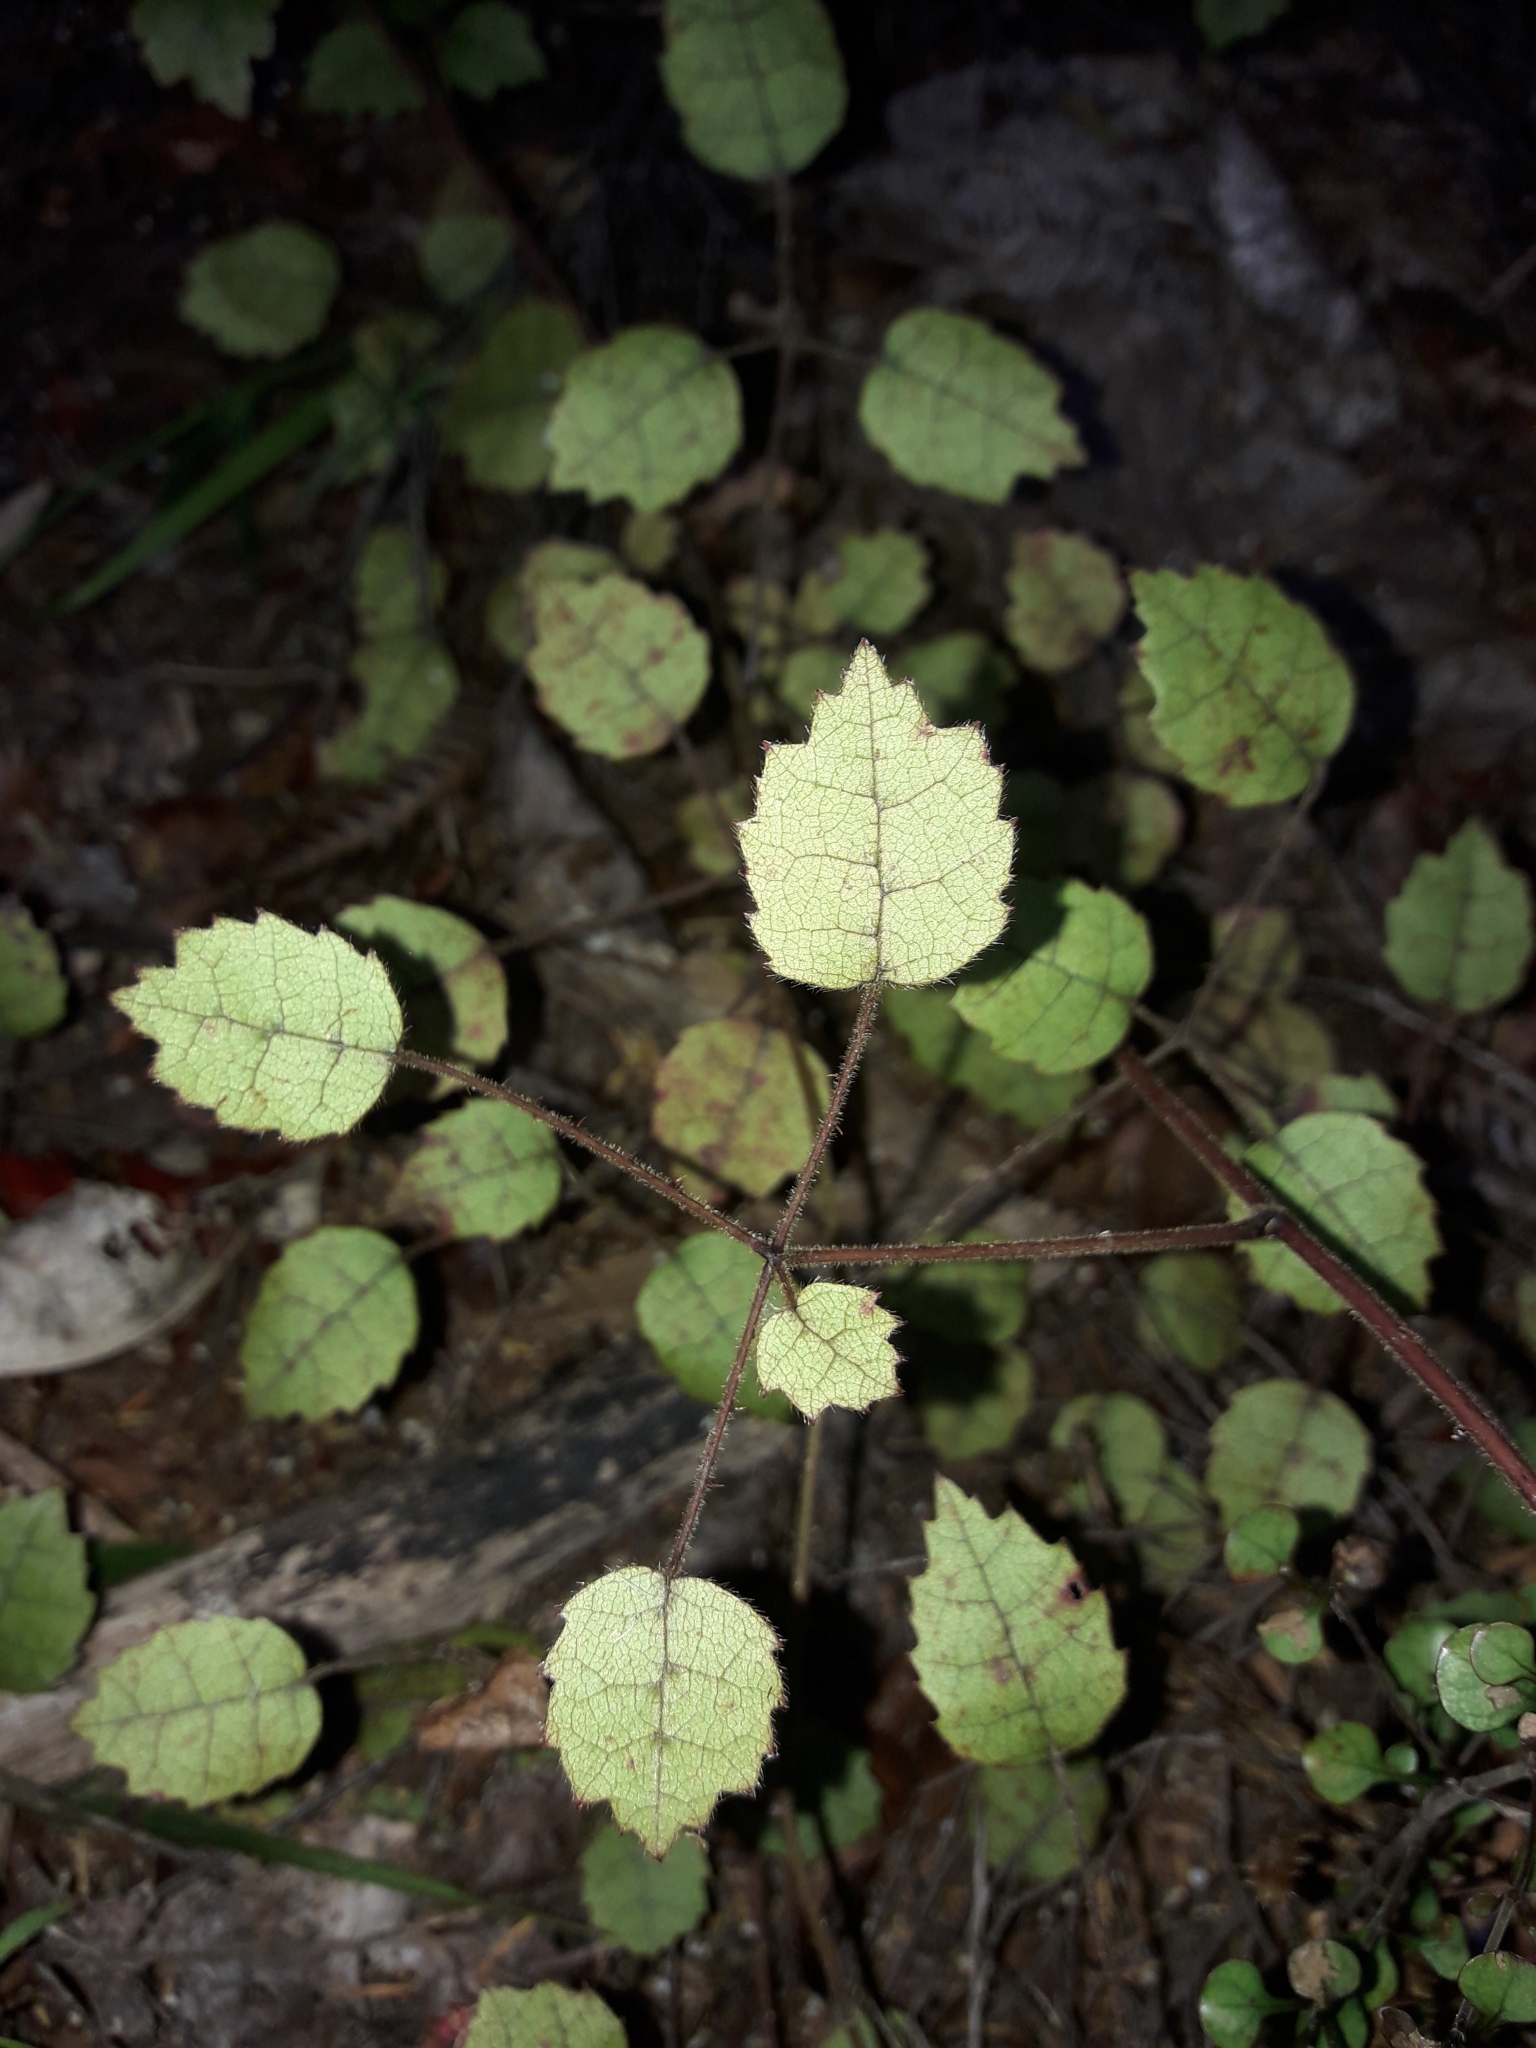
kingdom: Plantae
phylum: Tracheophyta
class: Magnoliopsida
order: Rosales
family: Rosaceae
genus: Rubus
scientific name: Rubus australis
